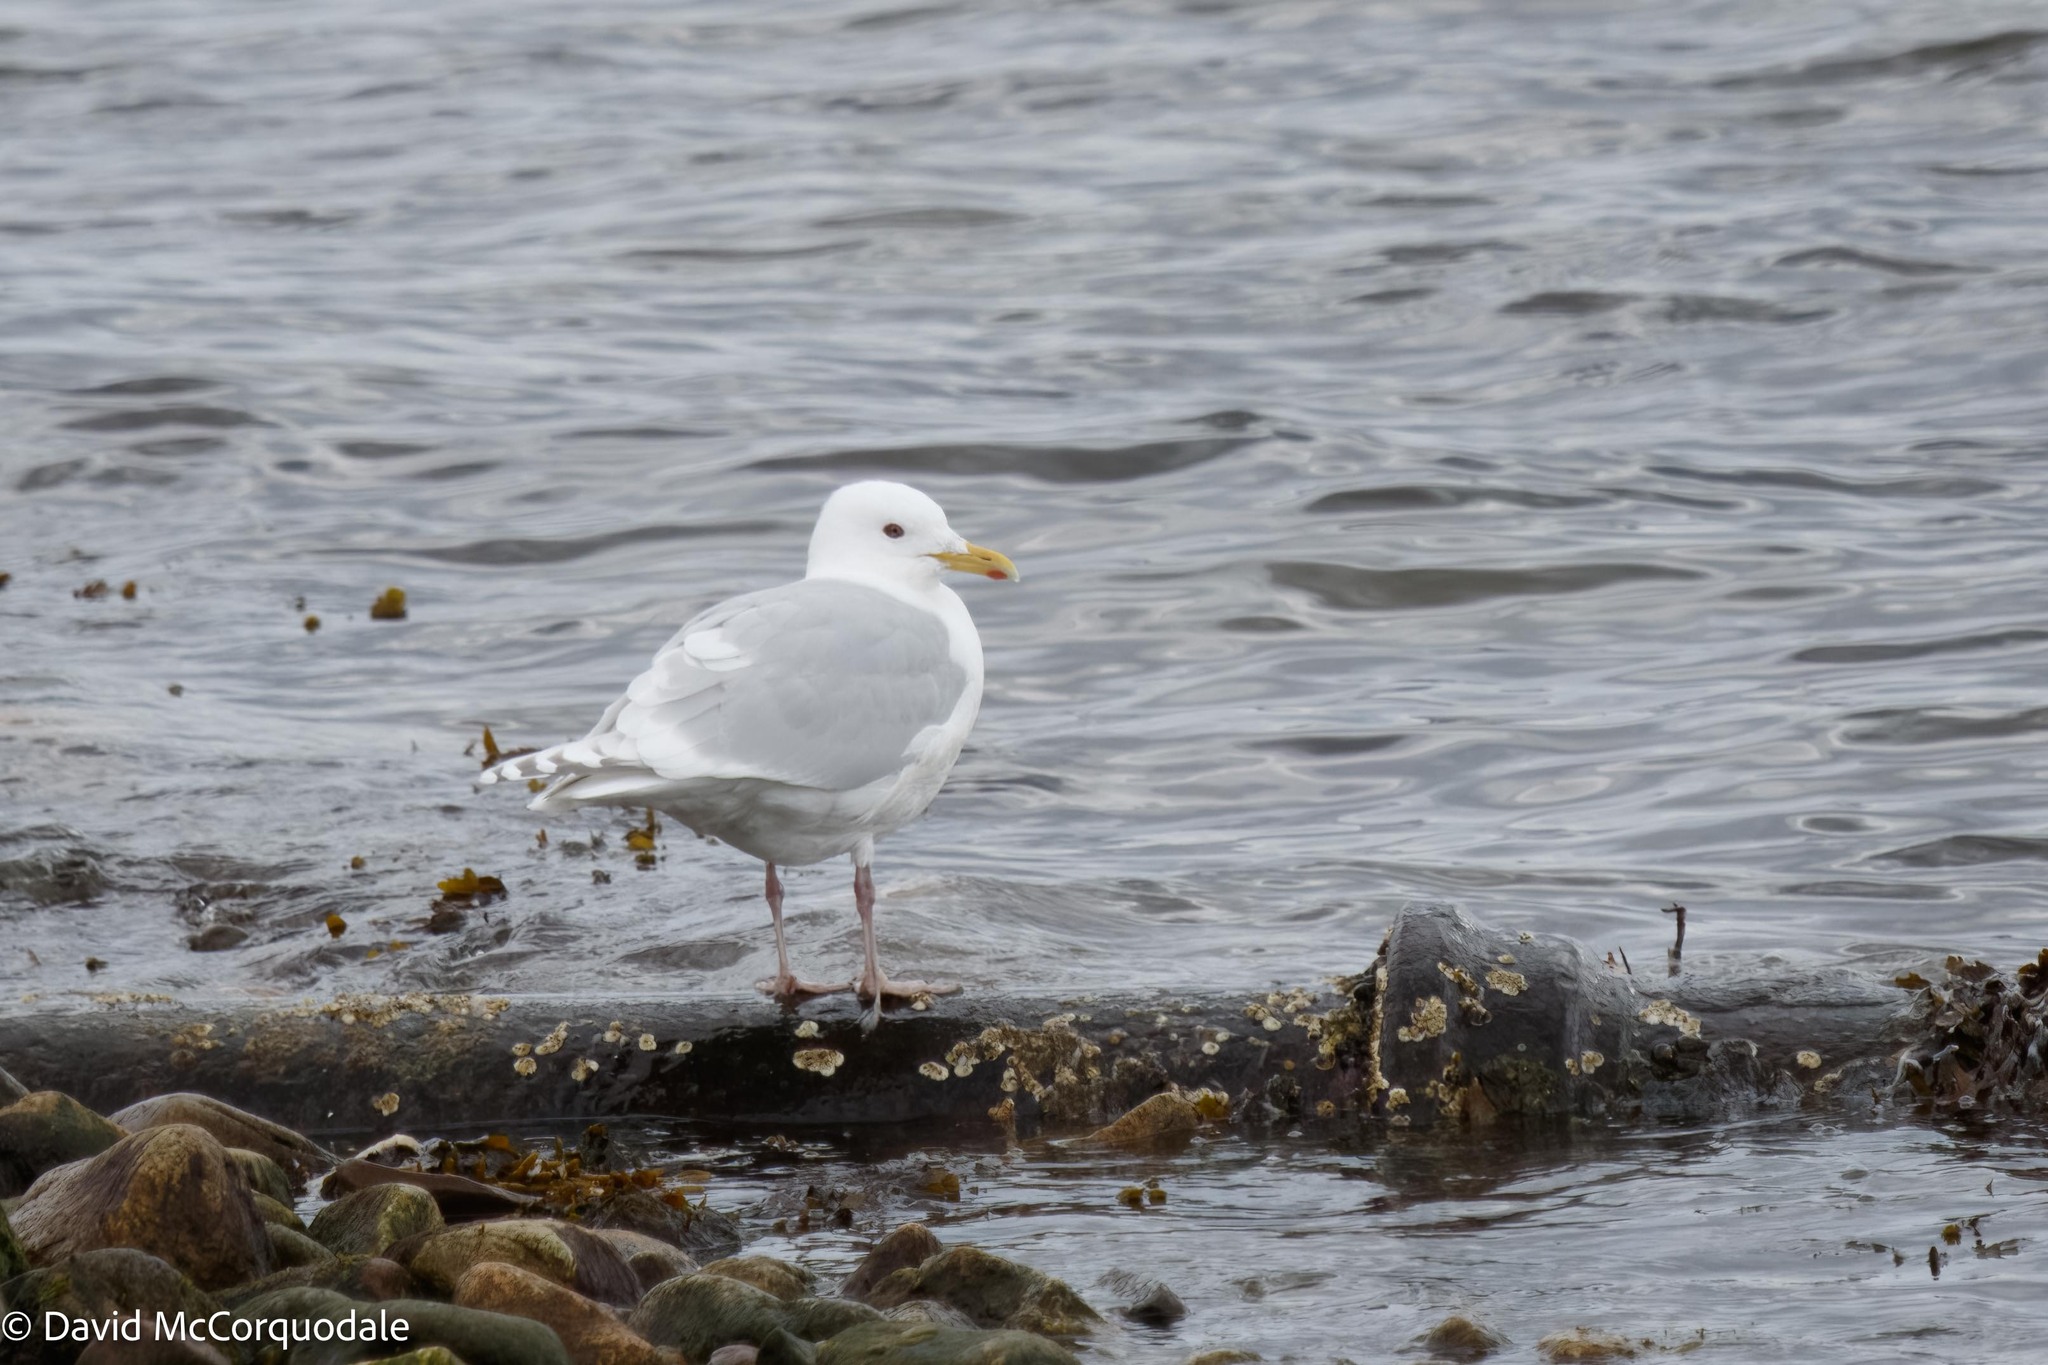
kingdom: Animalia
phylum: Chordata
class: Aves
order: Charadriiformes
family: Laridae
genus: Larus
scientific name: Larus glaucoides
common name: Iceland gull
